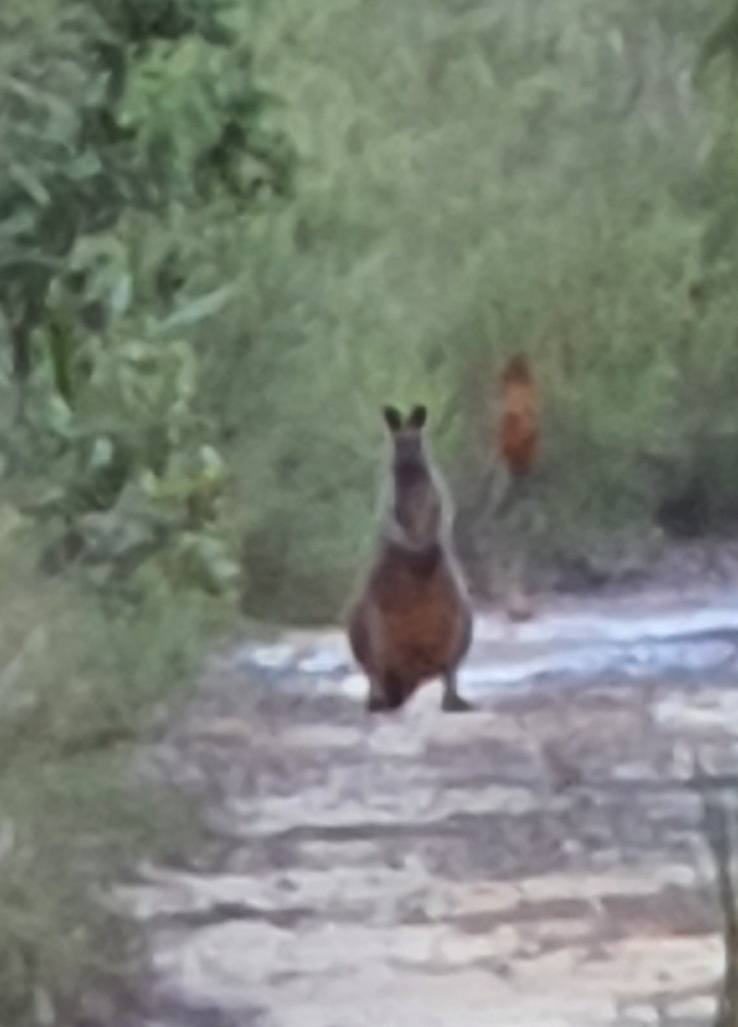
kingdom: Animalia
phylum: Chordata
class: Mammalia
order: Diprotodontia
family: Macropodidae
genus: Wallabia
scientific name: Wallabia bicolor
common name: Swamp wallaby
